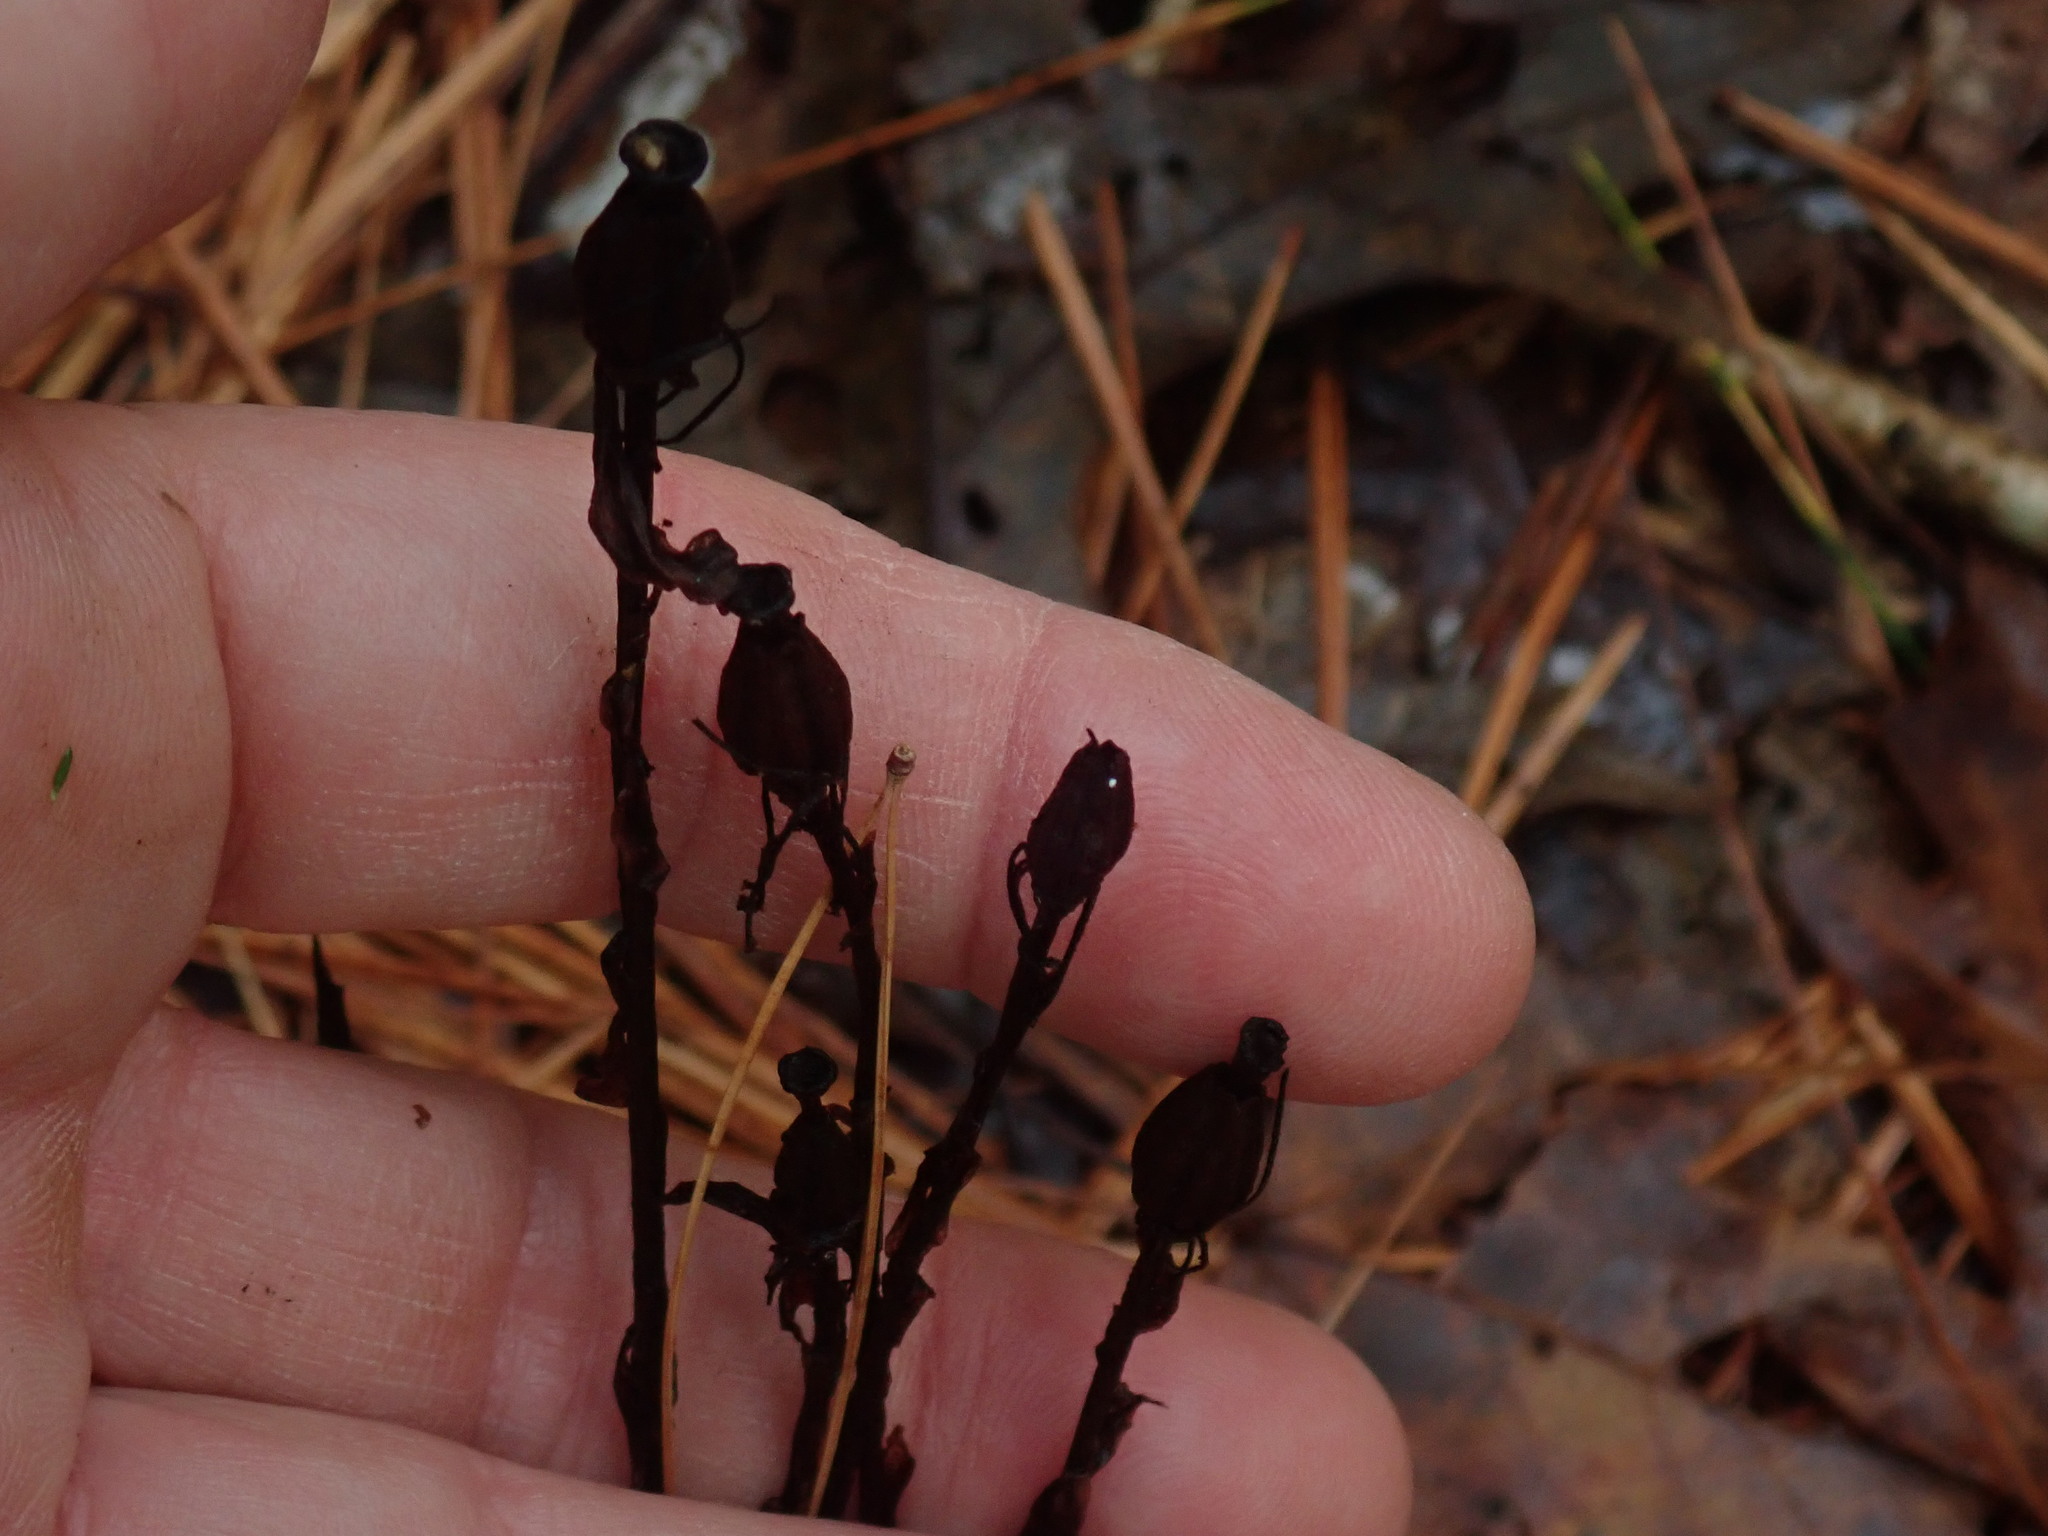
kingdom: Plantae
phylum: Tracheophyta
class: Magnoliopsida
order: Ericales
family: Ericaceae
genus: Monotropa
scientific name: Monotropa uniflora
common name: Convulsion root
